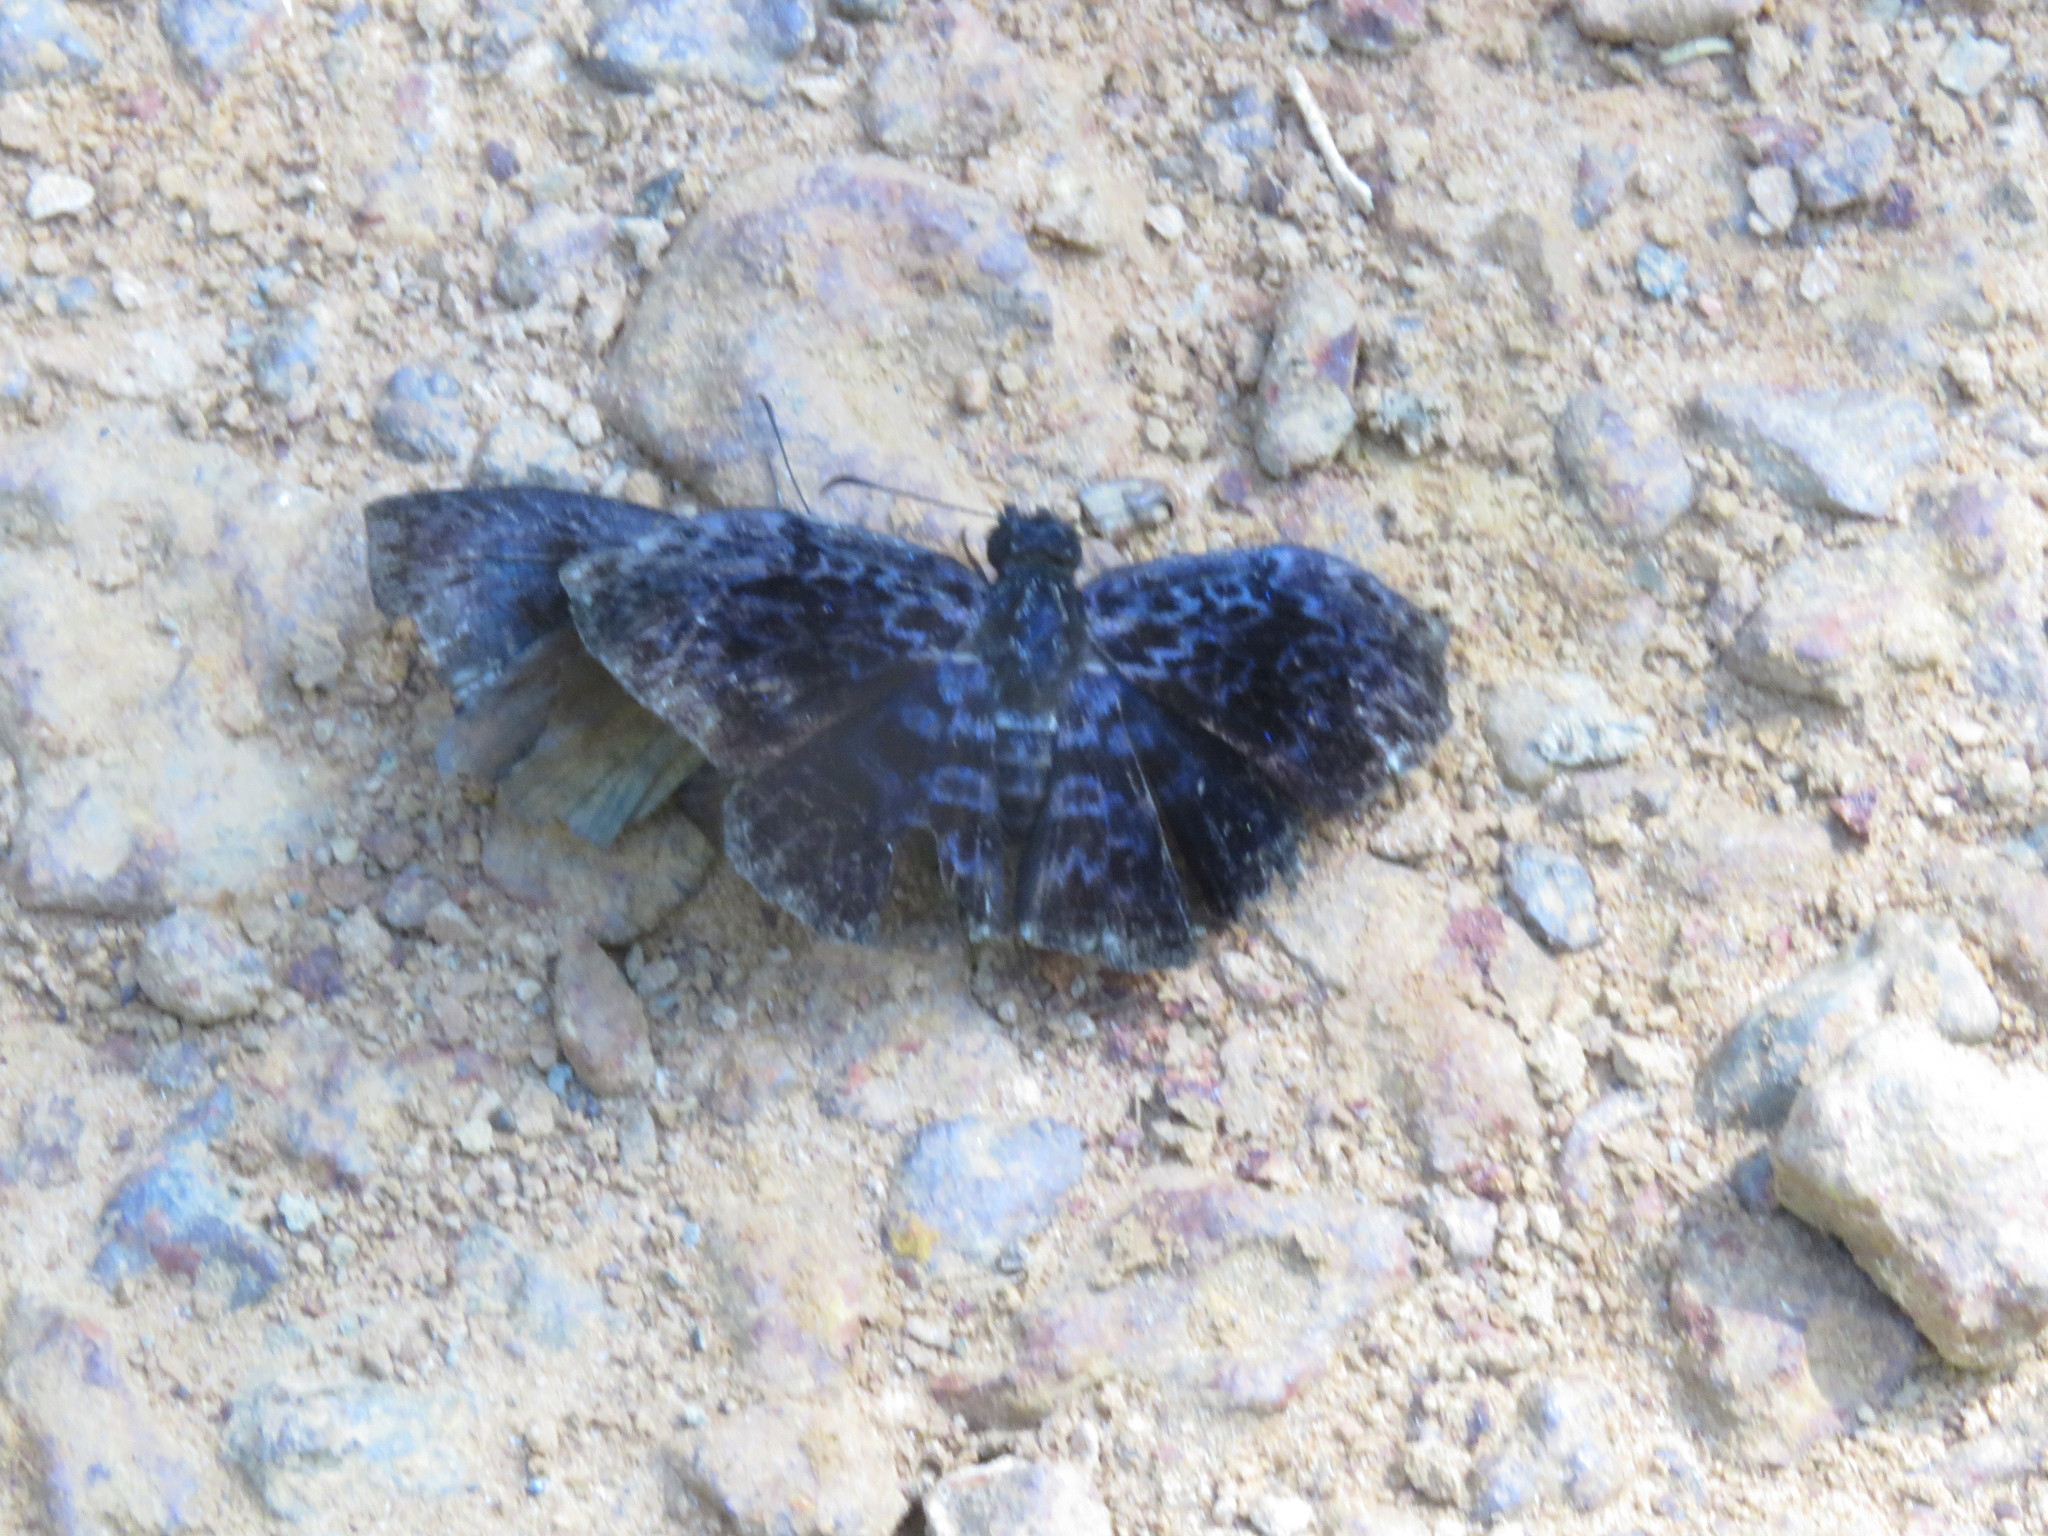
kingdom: Animalia
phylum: Arthropoda
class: Insecta
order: Lepidoptera
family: Hesperiidae
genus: Cycloglypha
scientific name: Cycloglypha thrasibulus
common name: Widespread bent-skipper
